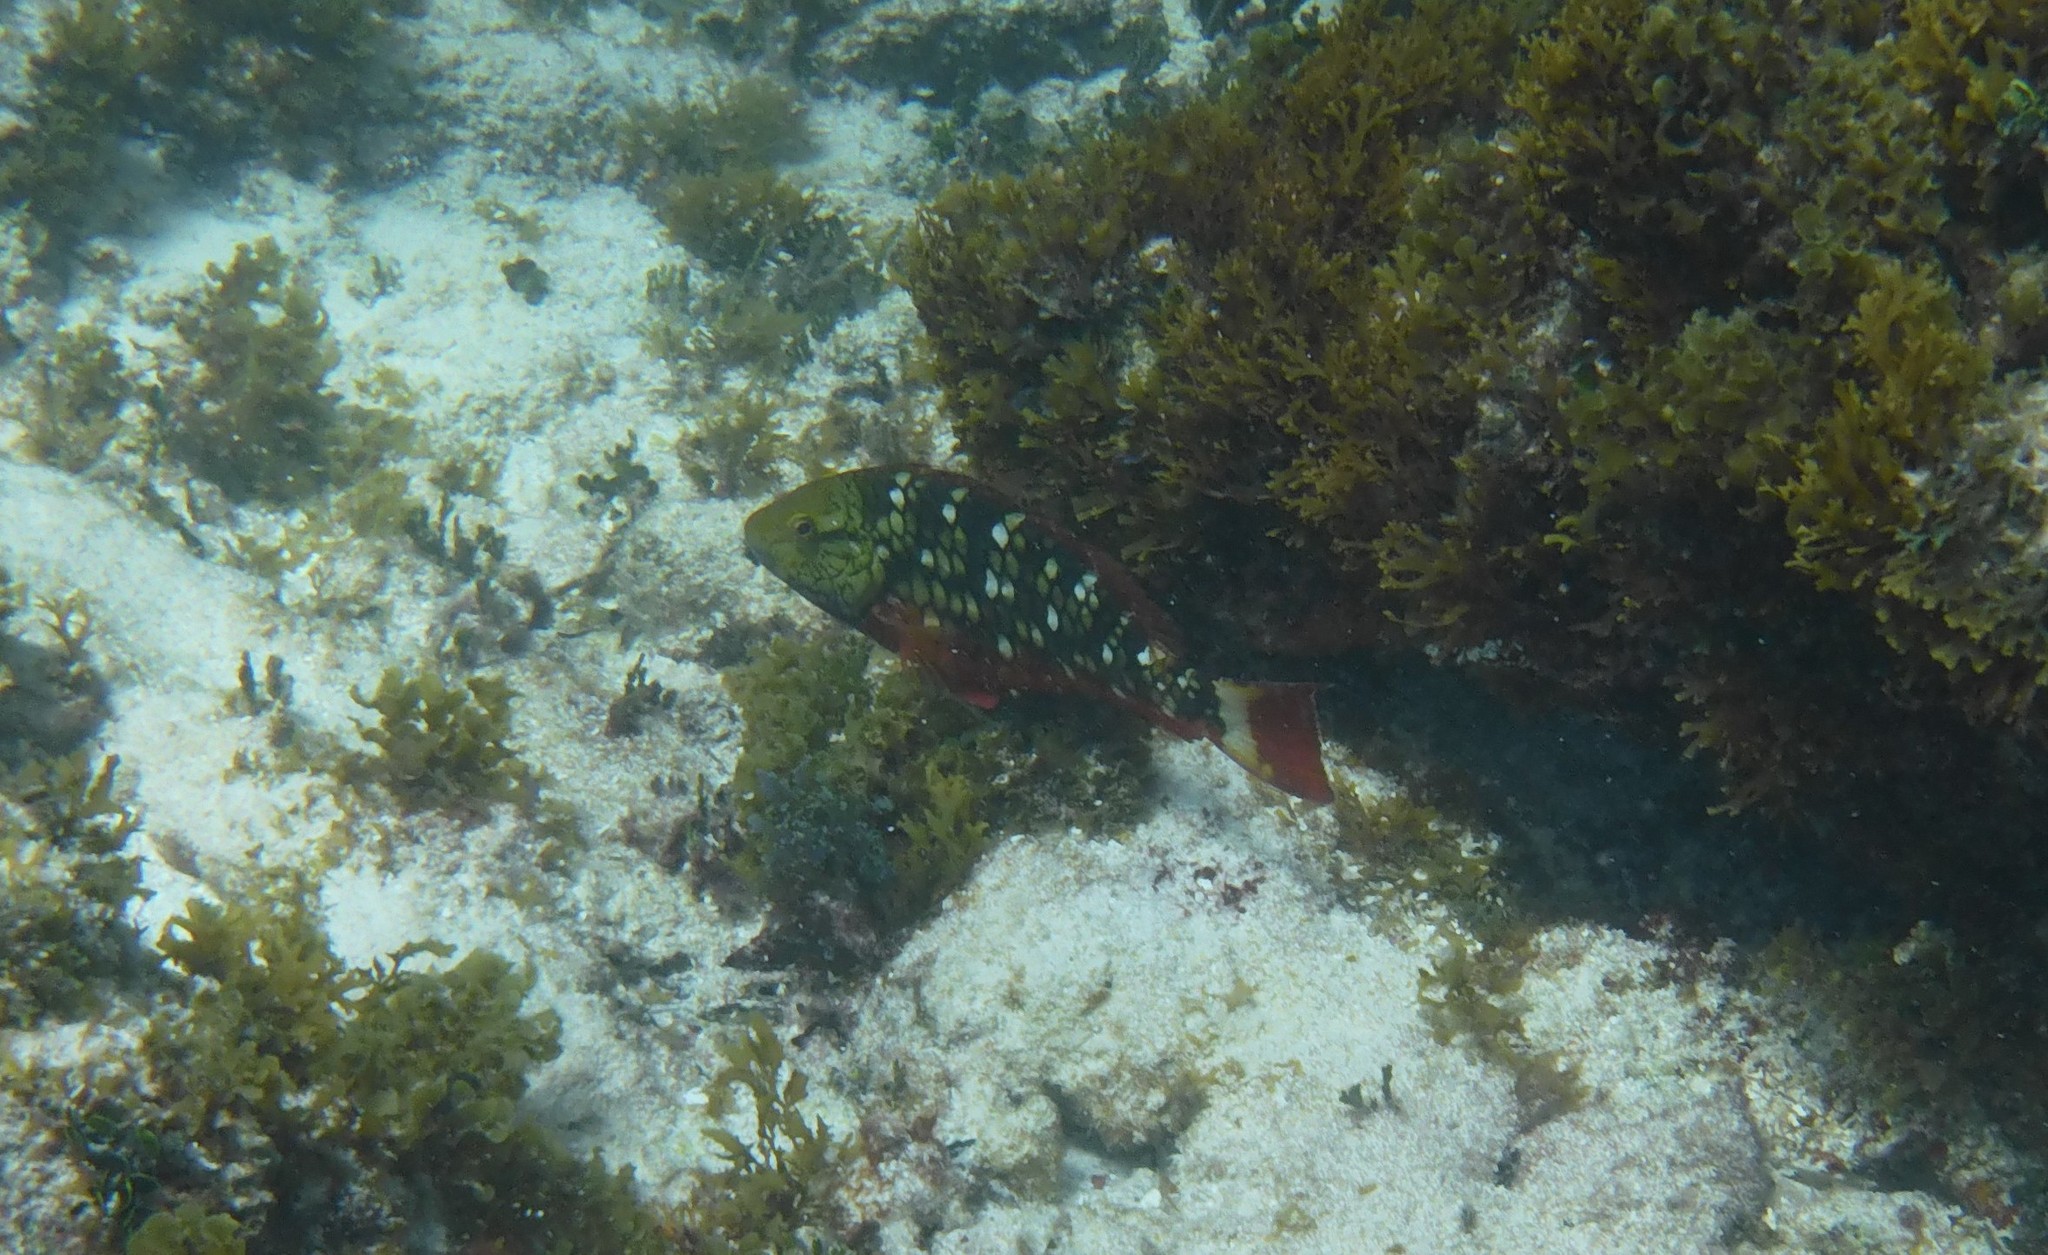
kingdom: Animalia
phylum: Chordata
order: Perciformes
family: Scaridae
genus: Sparisoma
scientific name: Sparisoma viride
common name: Stoplight parrotfish
